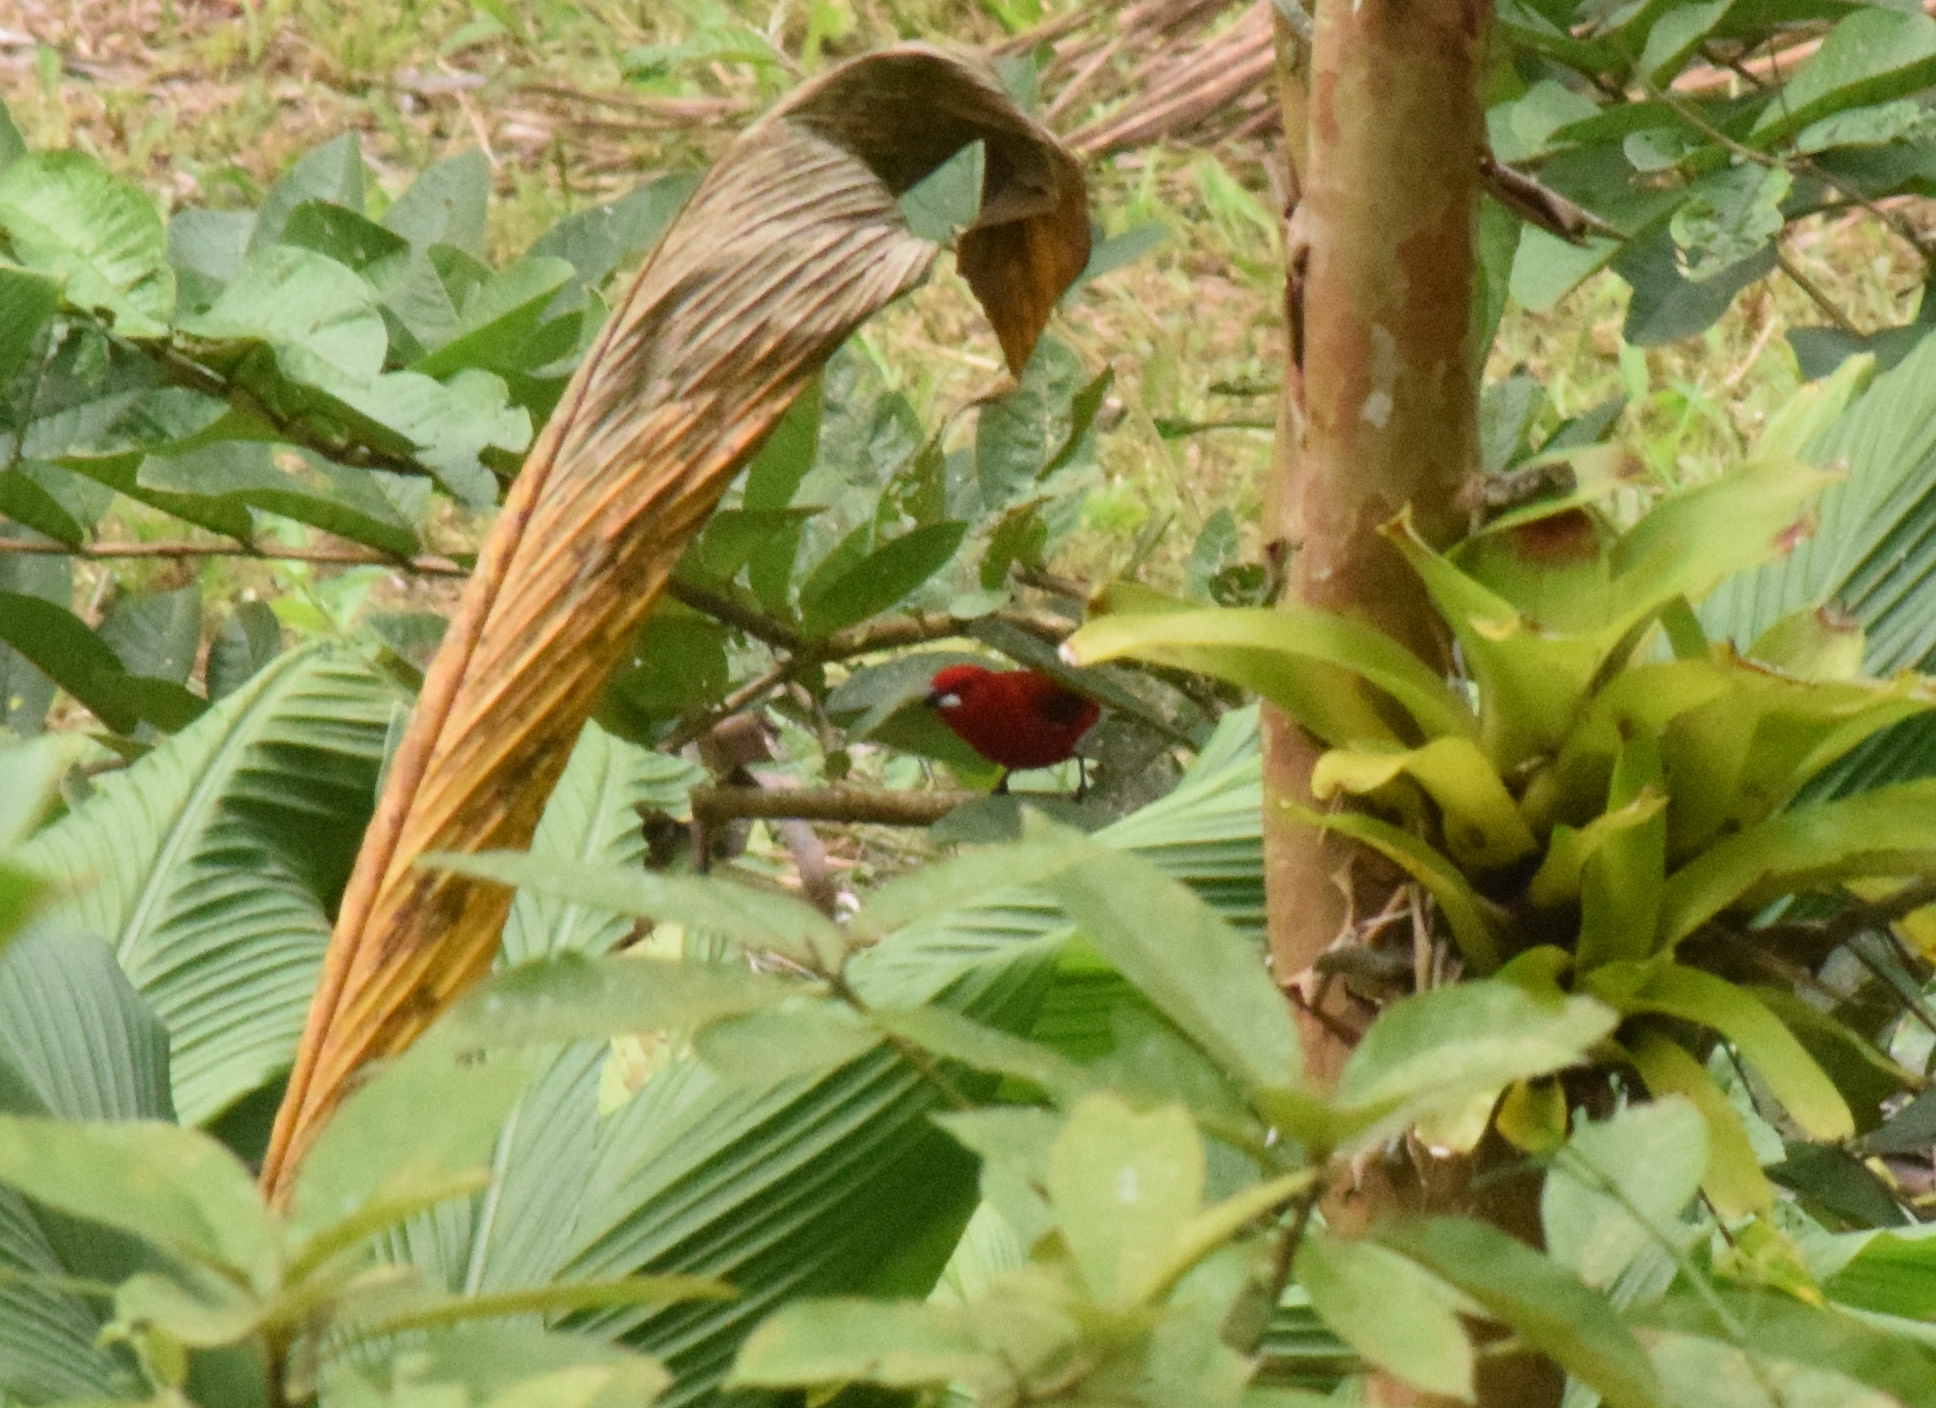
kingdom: Animalia
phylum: Chordata
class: Aves
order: Passeriformes
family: Thraupidae
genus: Ramphocelus
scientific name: Ramphocelus bresilia
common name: Brazilian tanager
